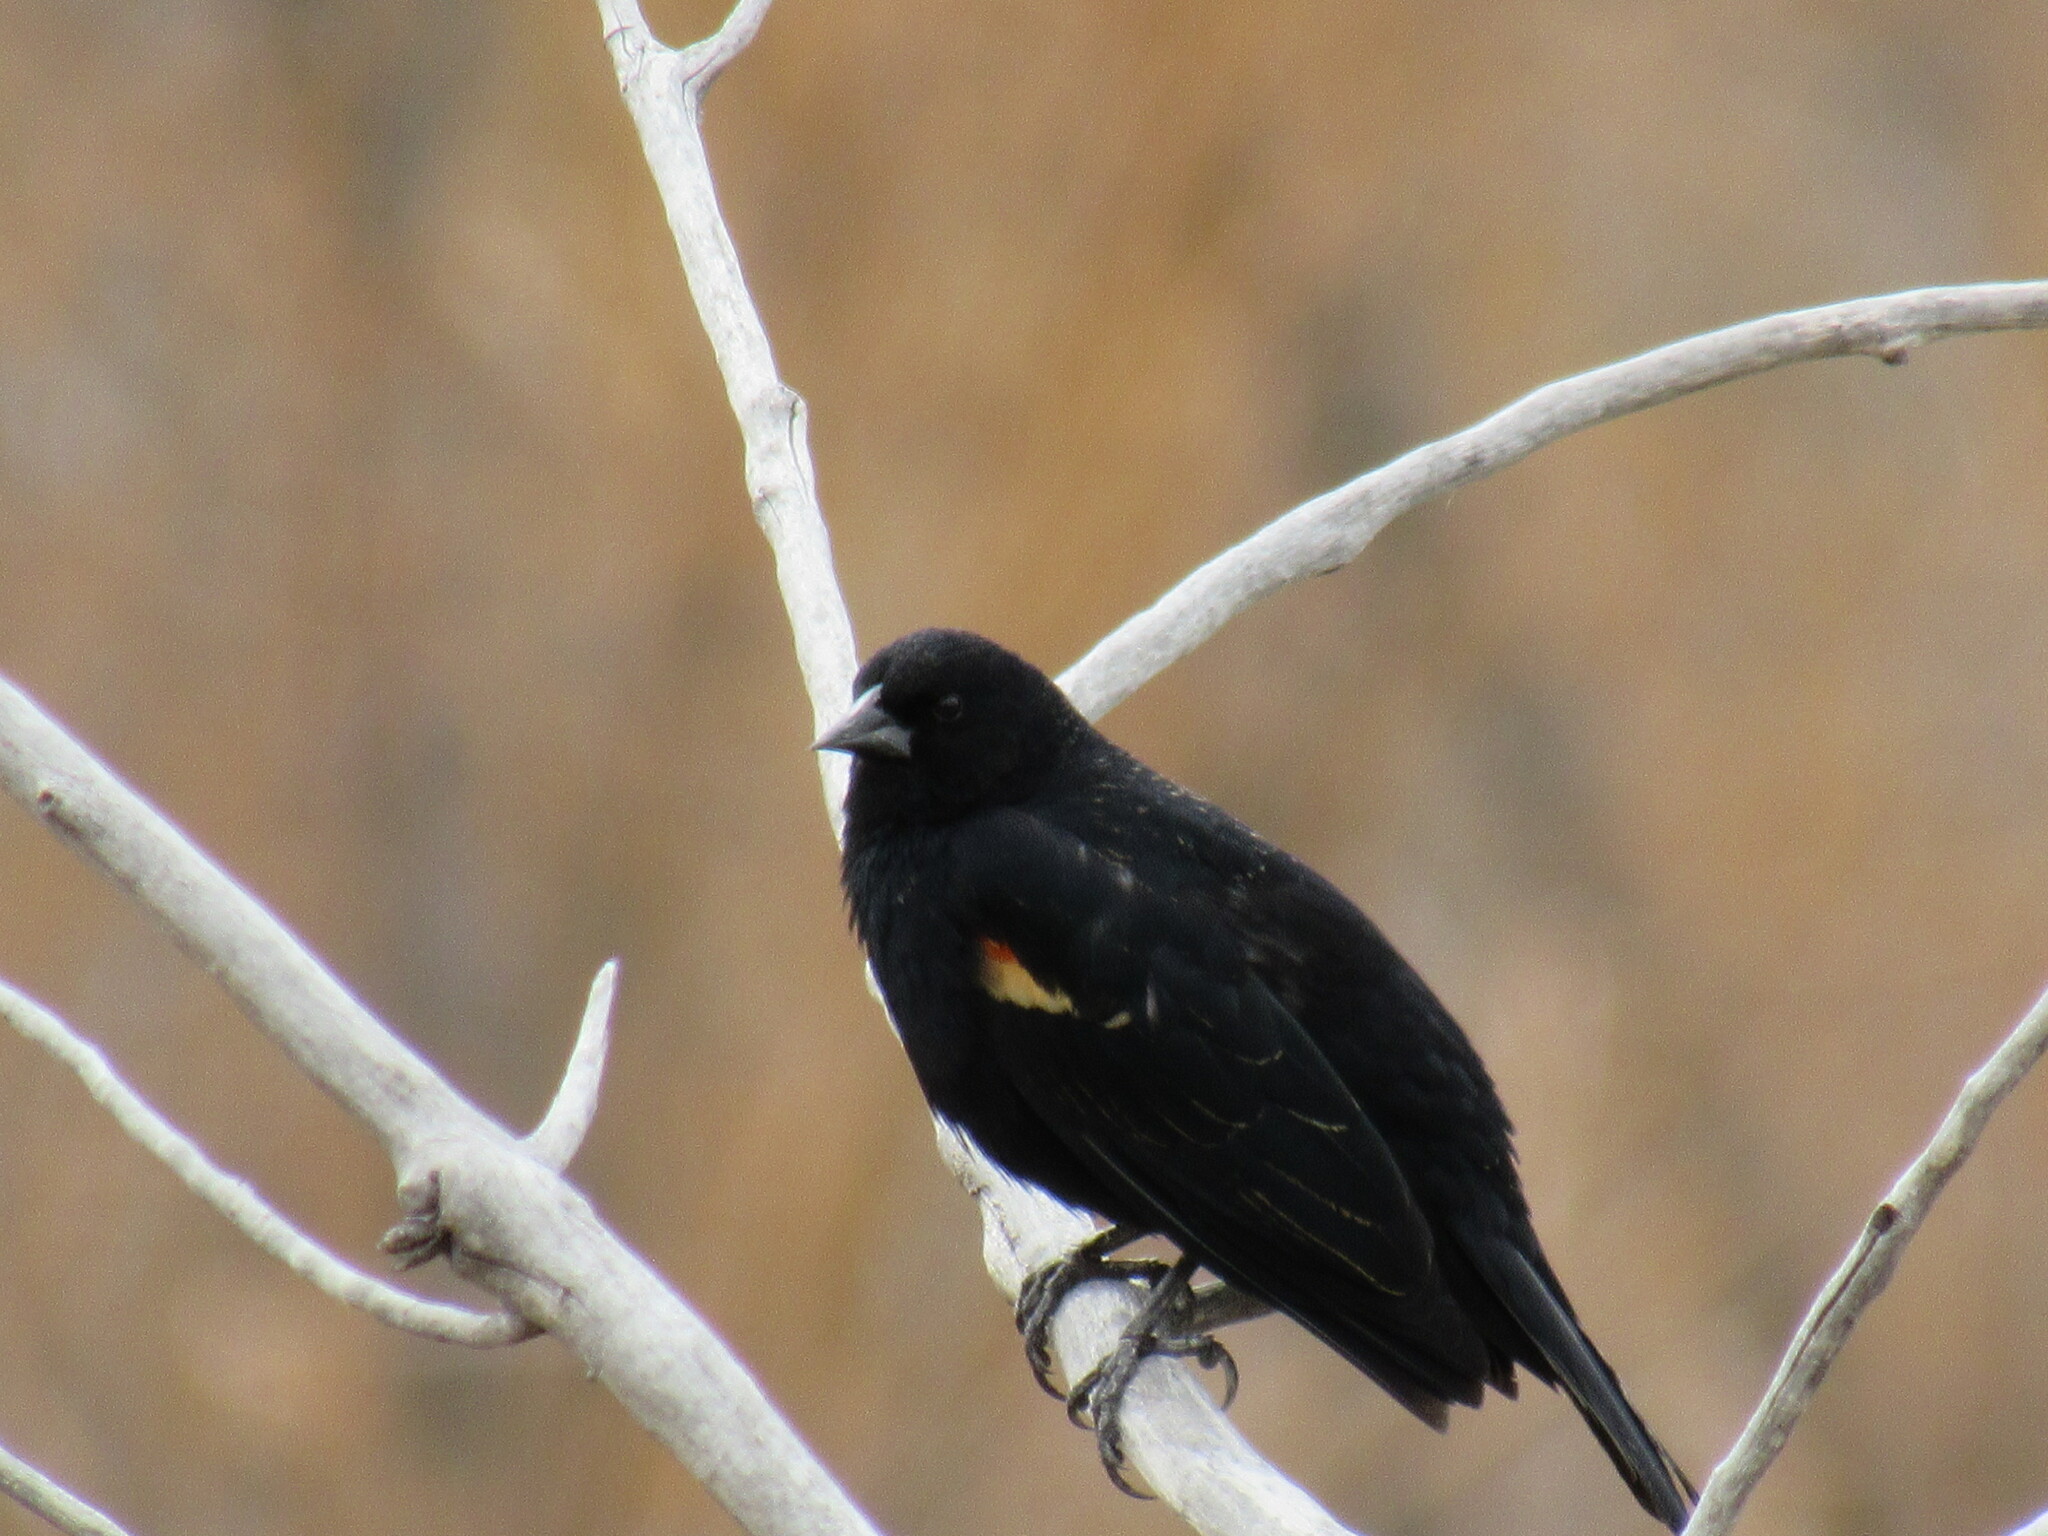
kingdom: Animalia
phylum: Chordata
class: Aves
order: Passeriformes
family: Icteridae
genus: Agelaius
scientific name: Agelaius phoeniceus
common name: Red-winged blackbird
